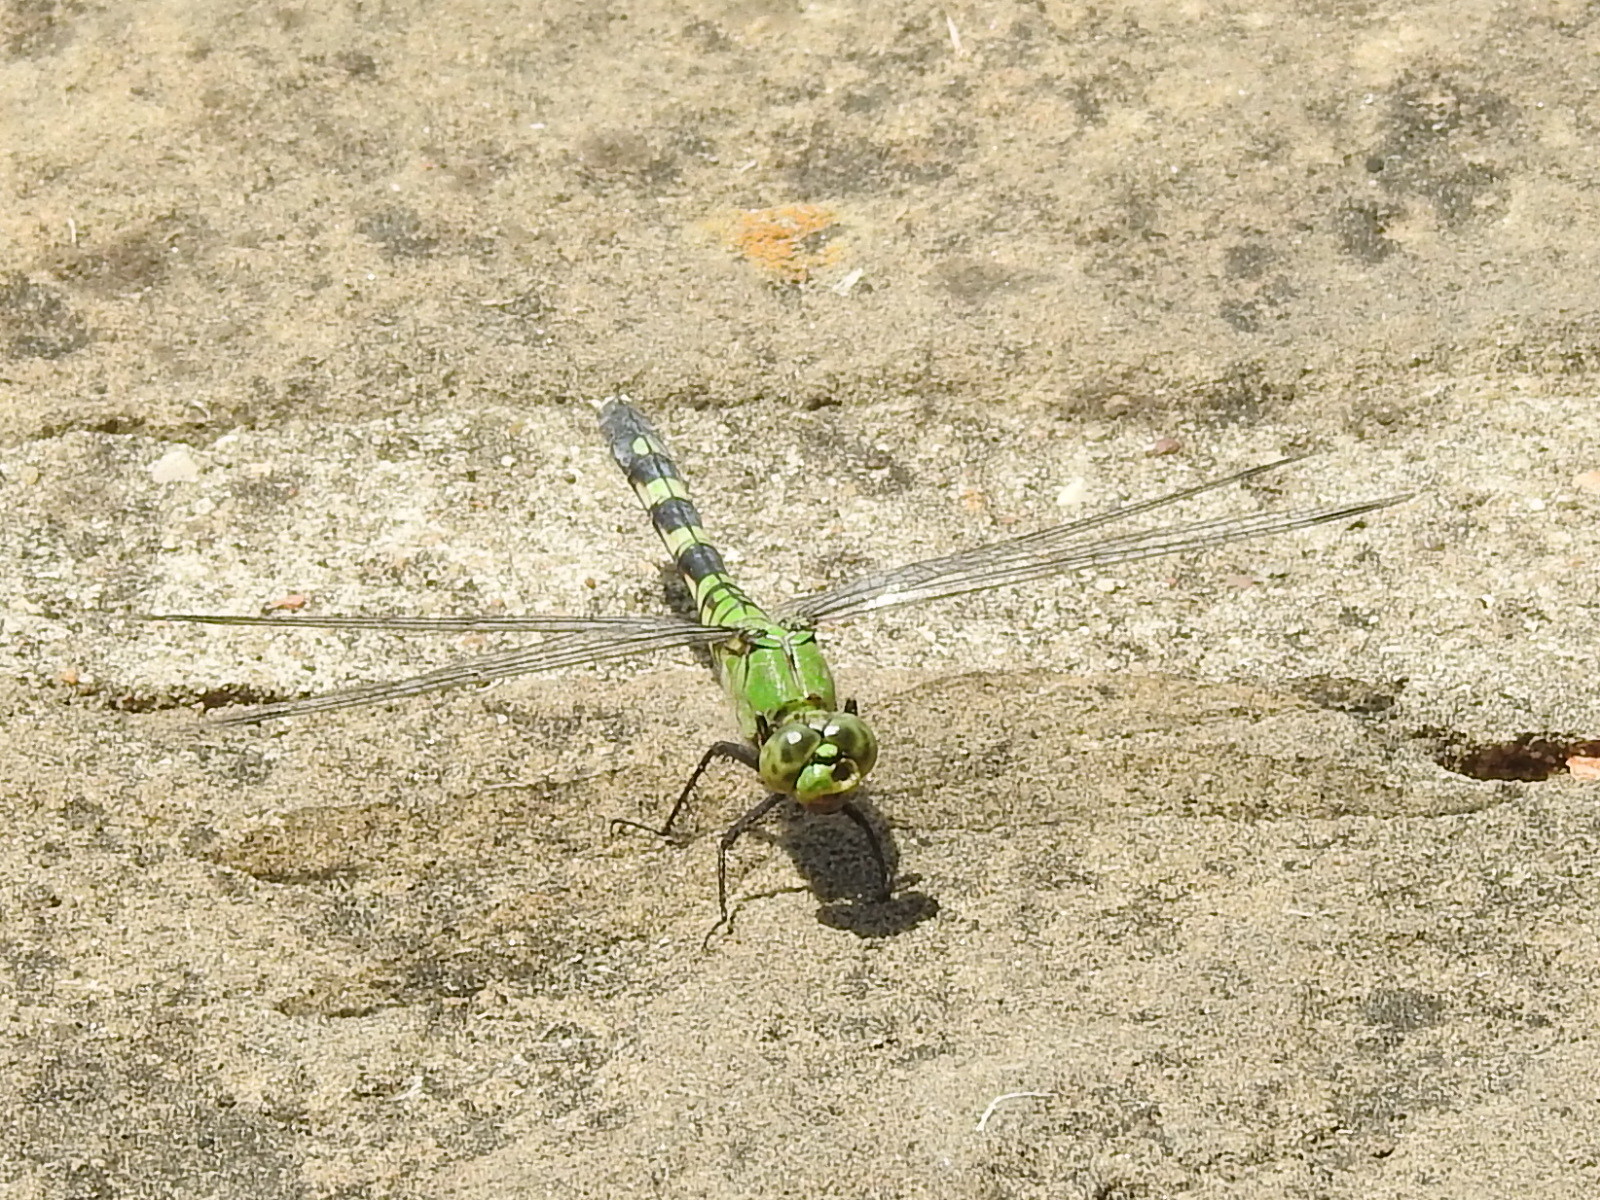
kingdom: Animalia
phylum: Arthropoda
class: Insecta
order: Odonata
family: Libellulidae
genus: Erythemis
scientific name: Erythemis simplicicollis
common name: Eastern pondhawk
